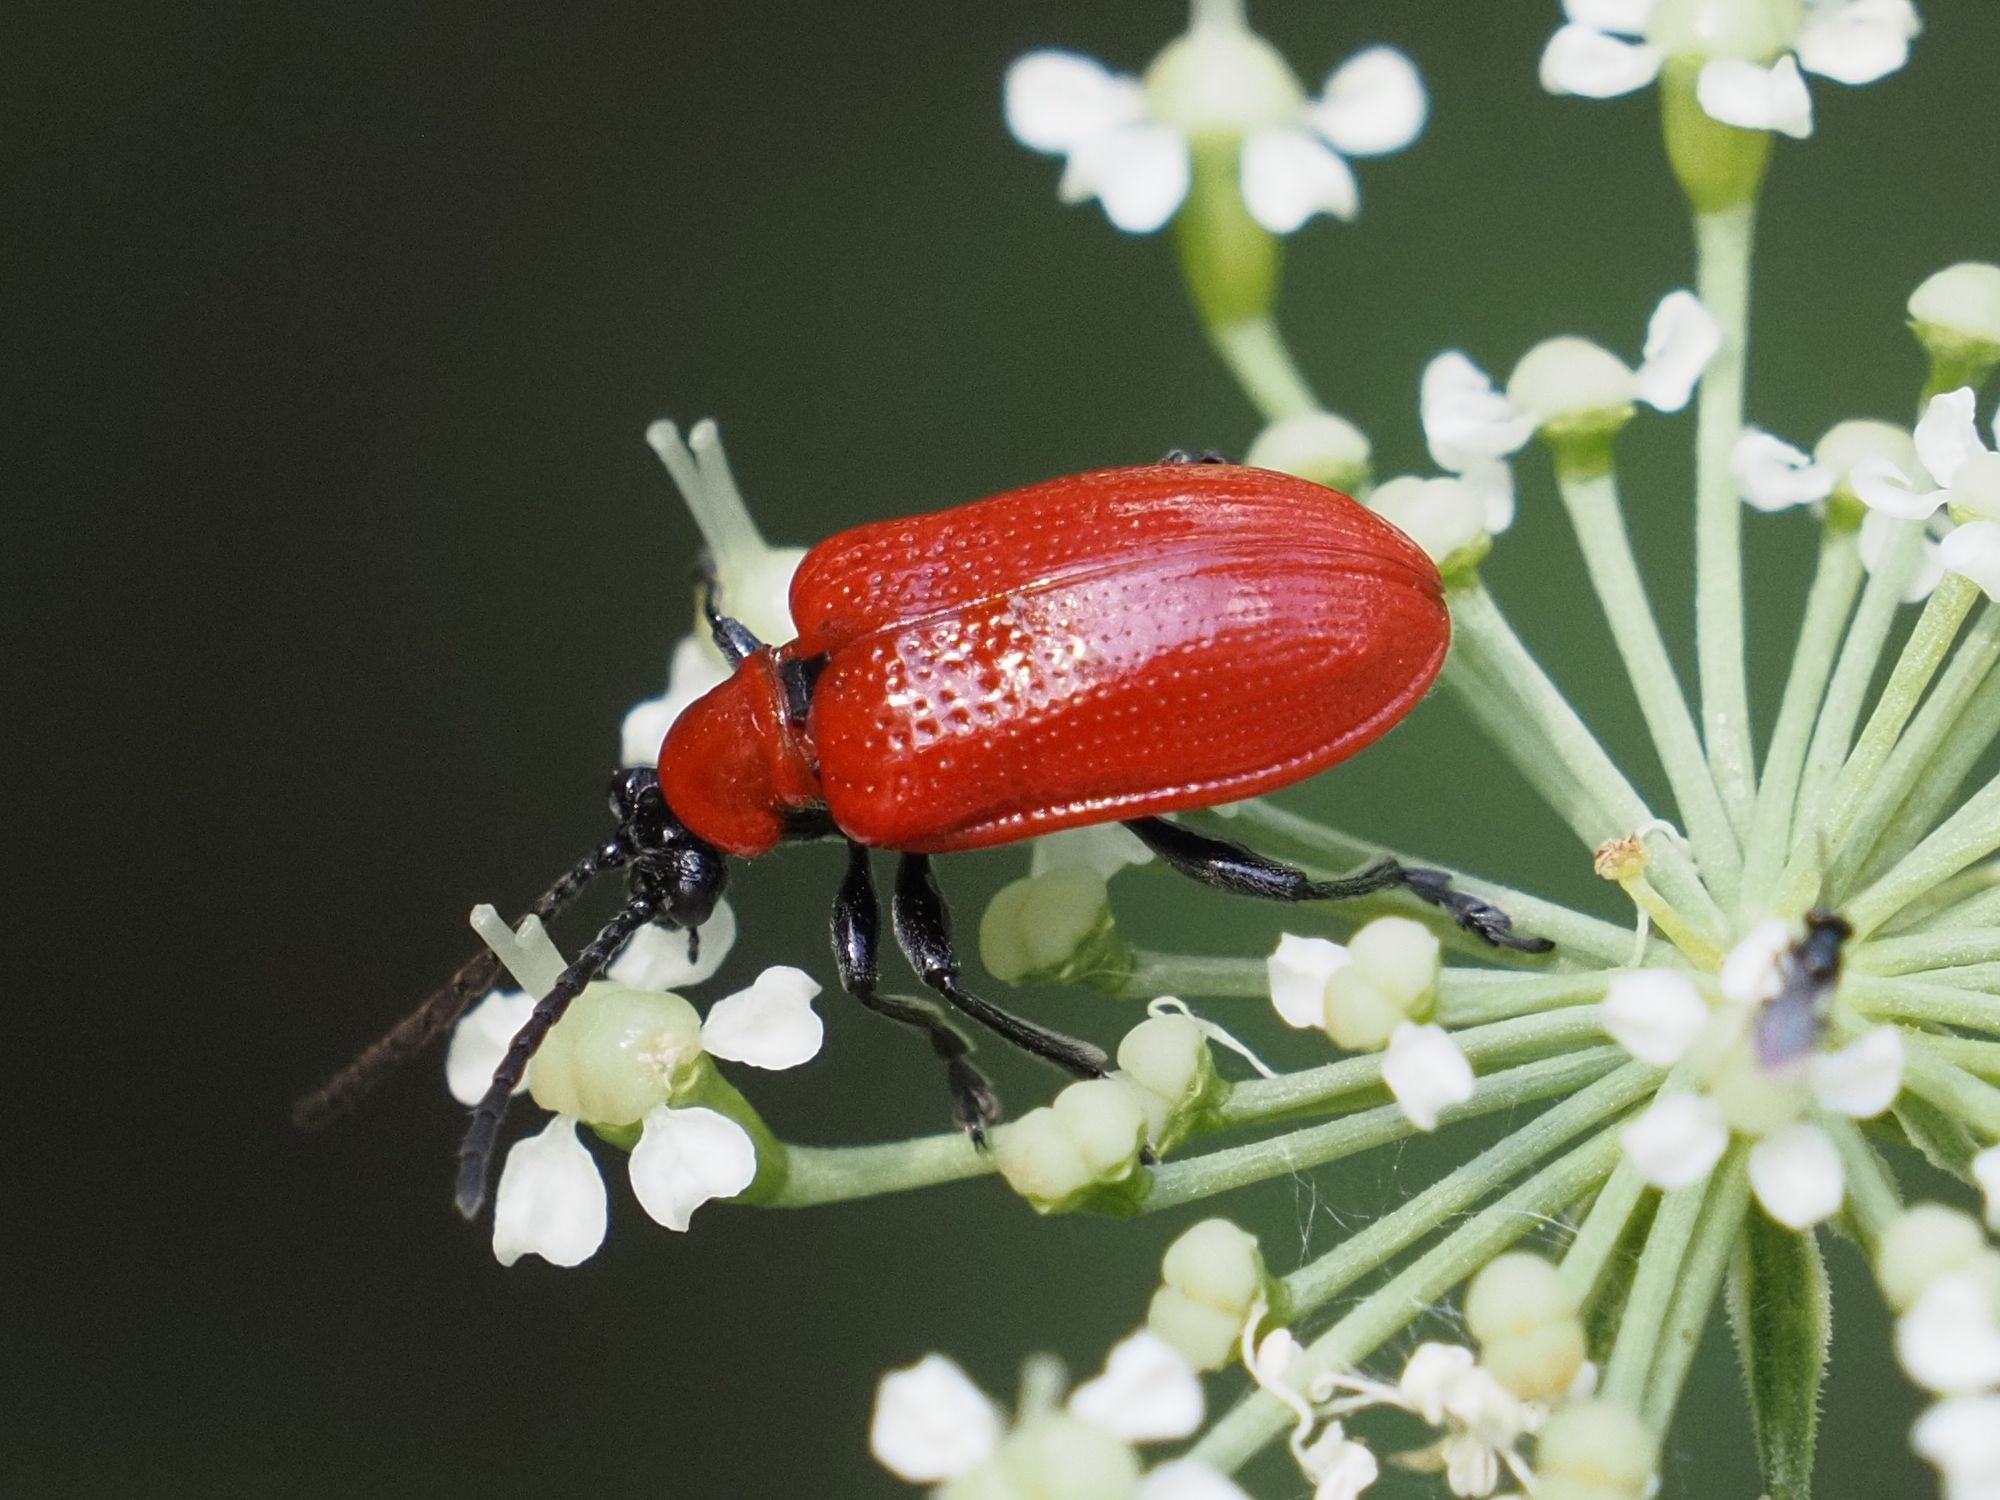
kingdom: Animalia
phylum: Arthropoda
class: Insecta
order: Coleoptera
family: Chrysomelidae
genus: Lilioceris
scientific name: Lilioceris lilii
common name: Lily beetle
